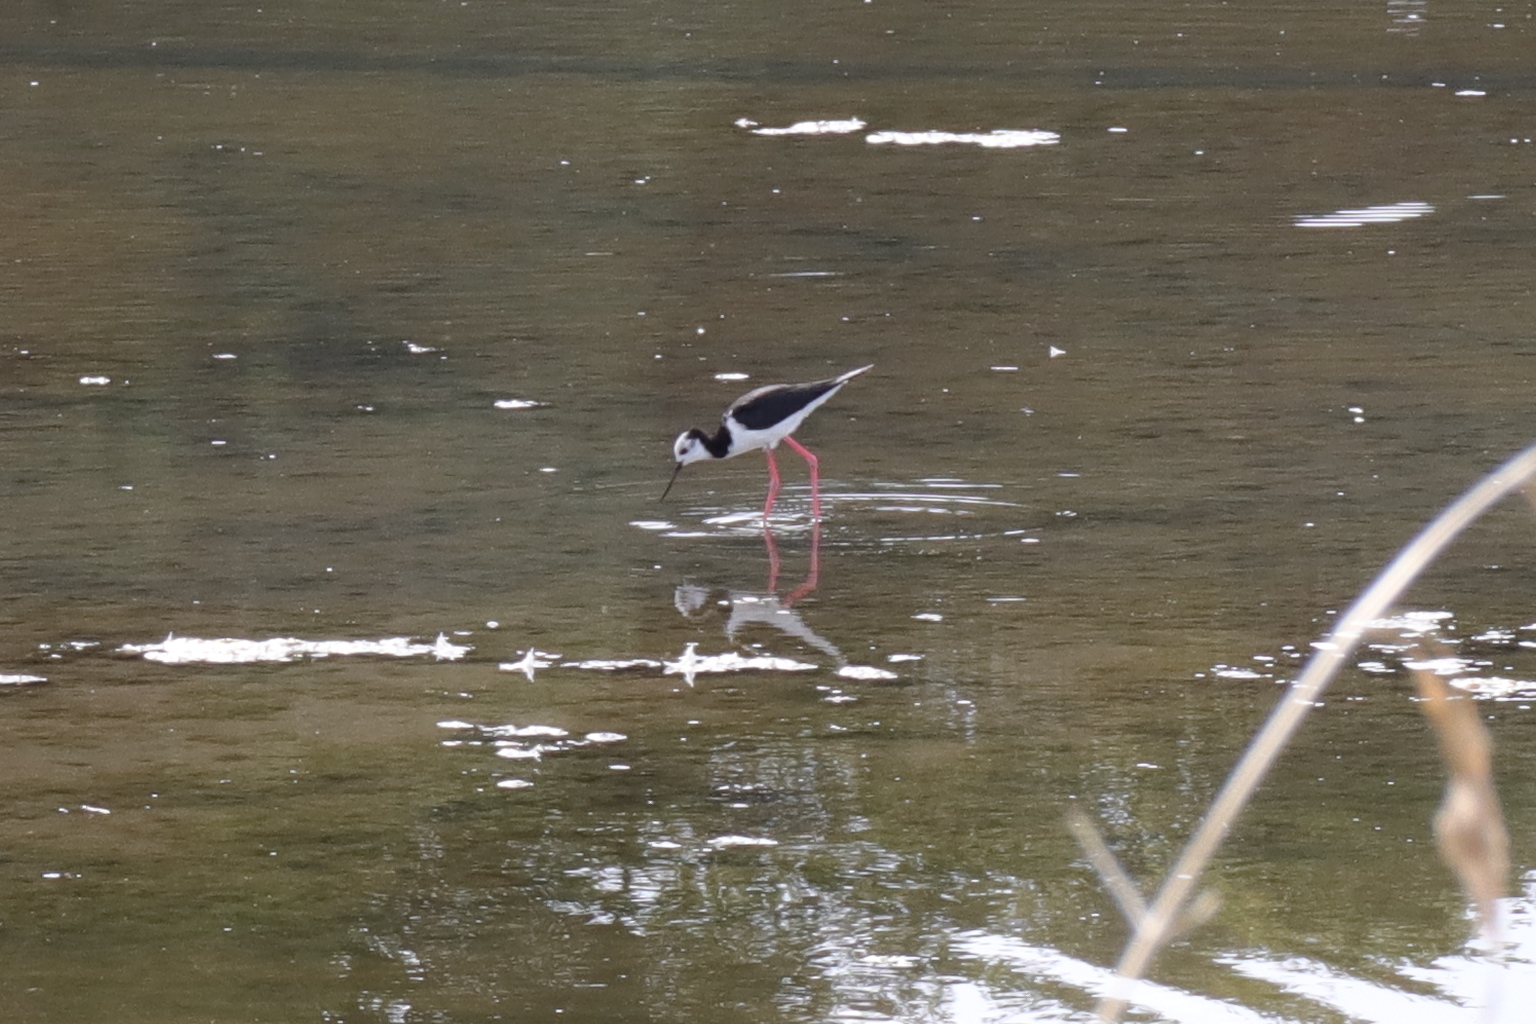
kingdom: Animalia
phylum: Chordata
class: Aves
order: Charadriiformes
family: Recurvirostridae
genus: Himantopus
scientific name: Himantopus leucocephalus
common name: White-headed stilt
